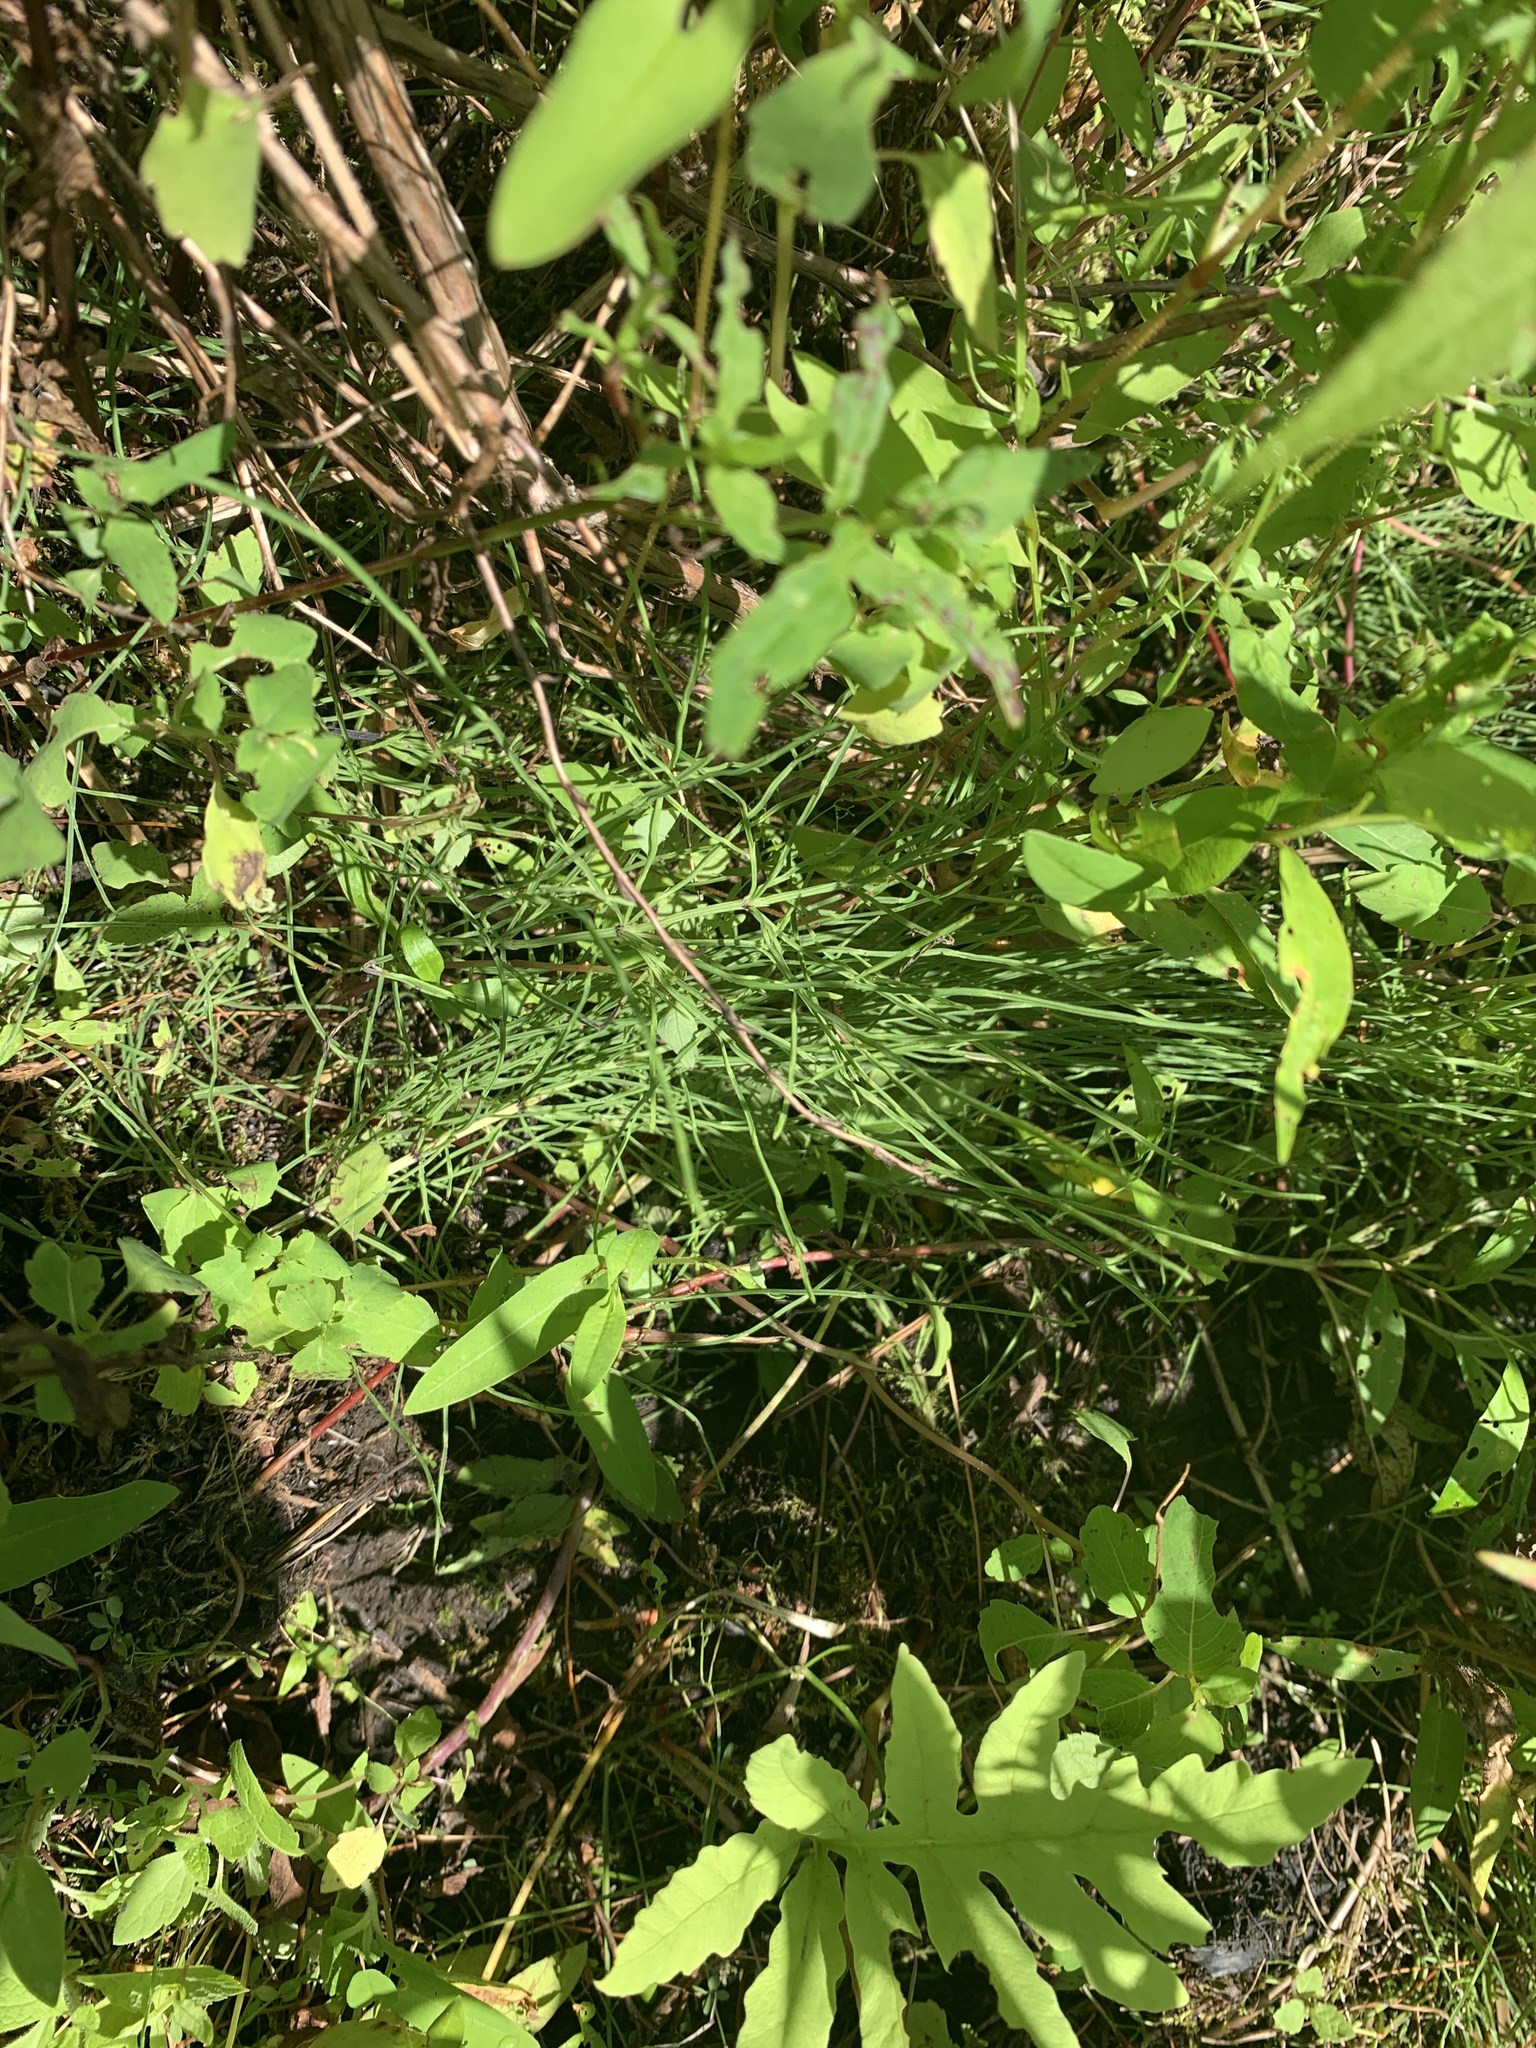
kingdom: Plantae
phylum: Tracheophyta
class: Polypodiopsida
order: Equisetales
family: Equisetaceae
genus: Equisetum
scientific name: Equisetum arvense
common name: Field horsetail
